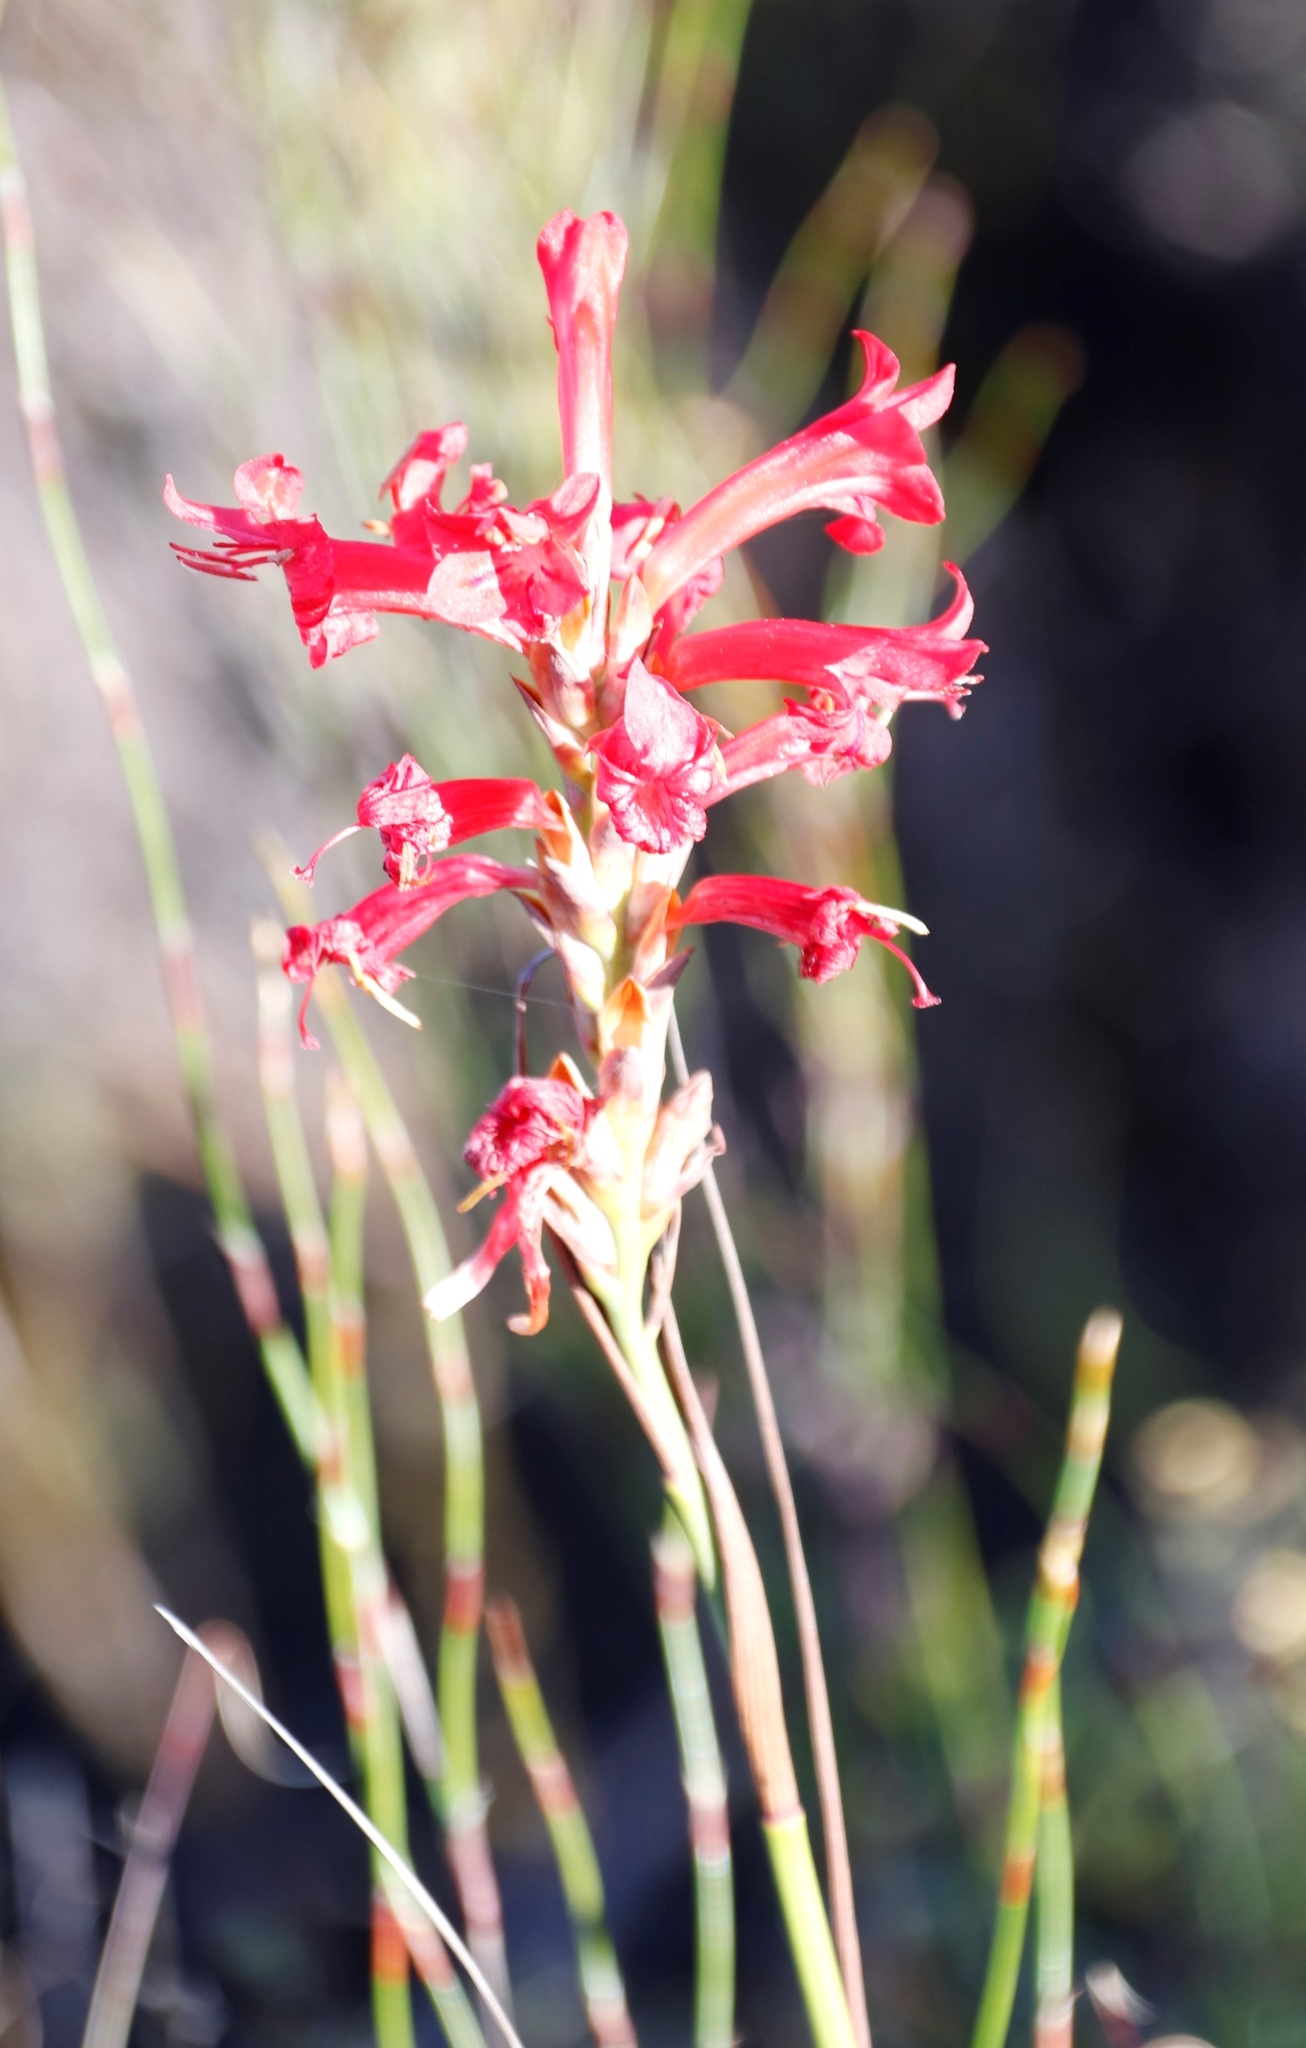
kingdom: Plantae
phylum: Tracheophyta
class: Liliopsida
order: Asparagales
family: Iridaceae
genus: Tritoniopsis
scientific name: Tritoniopsis triticea
